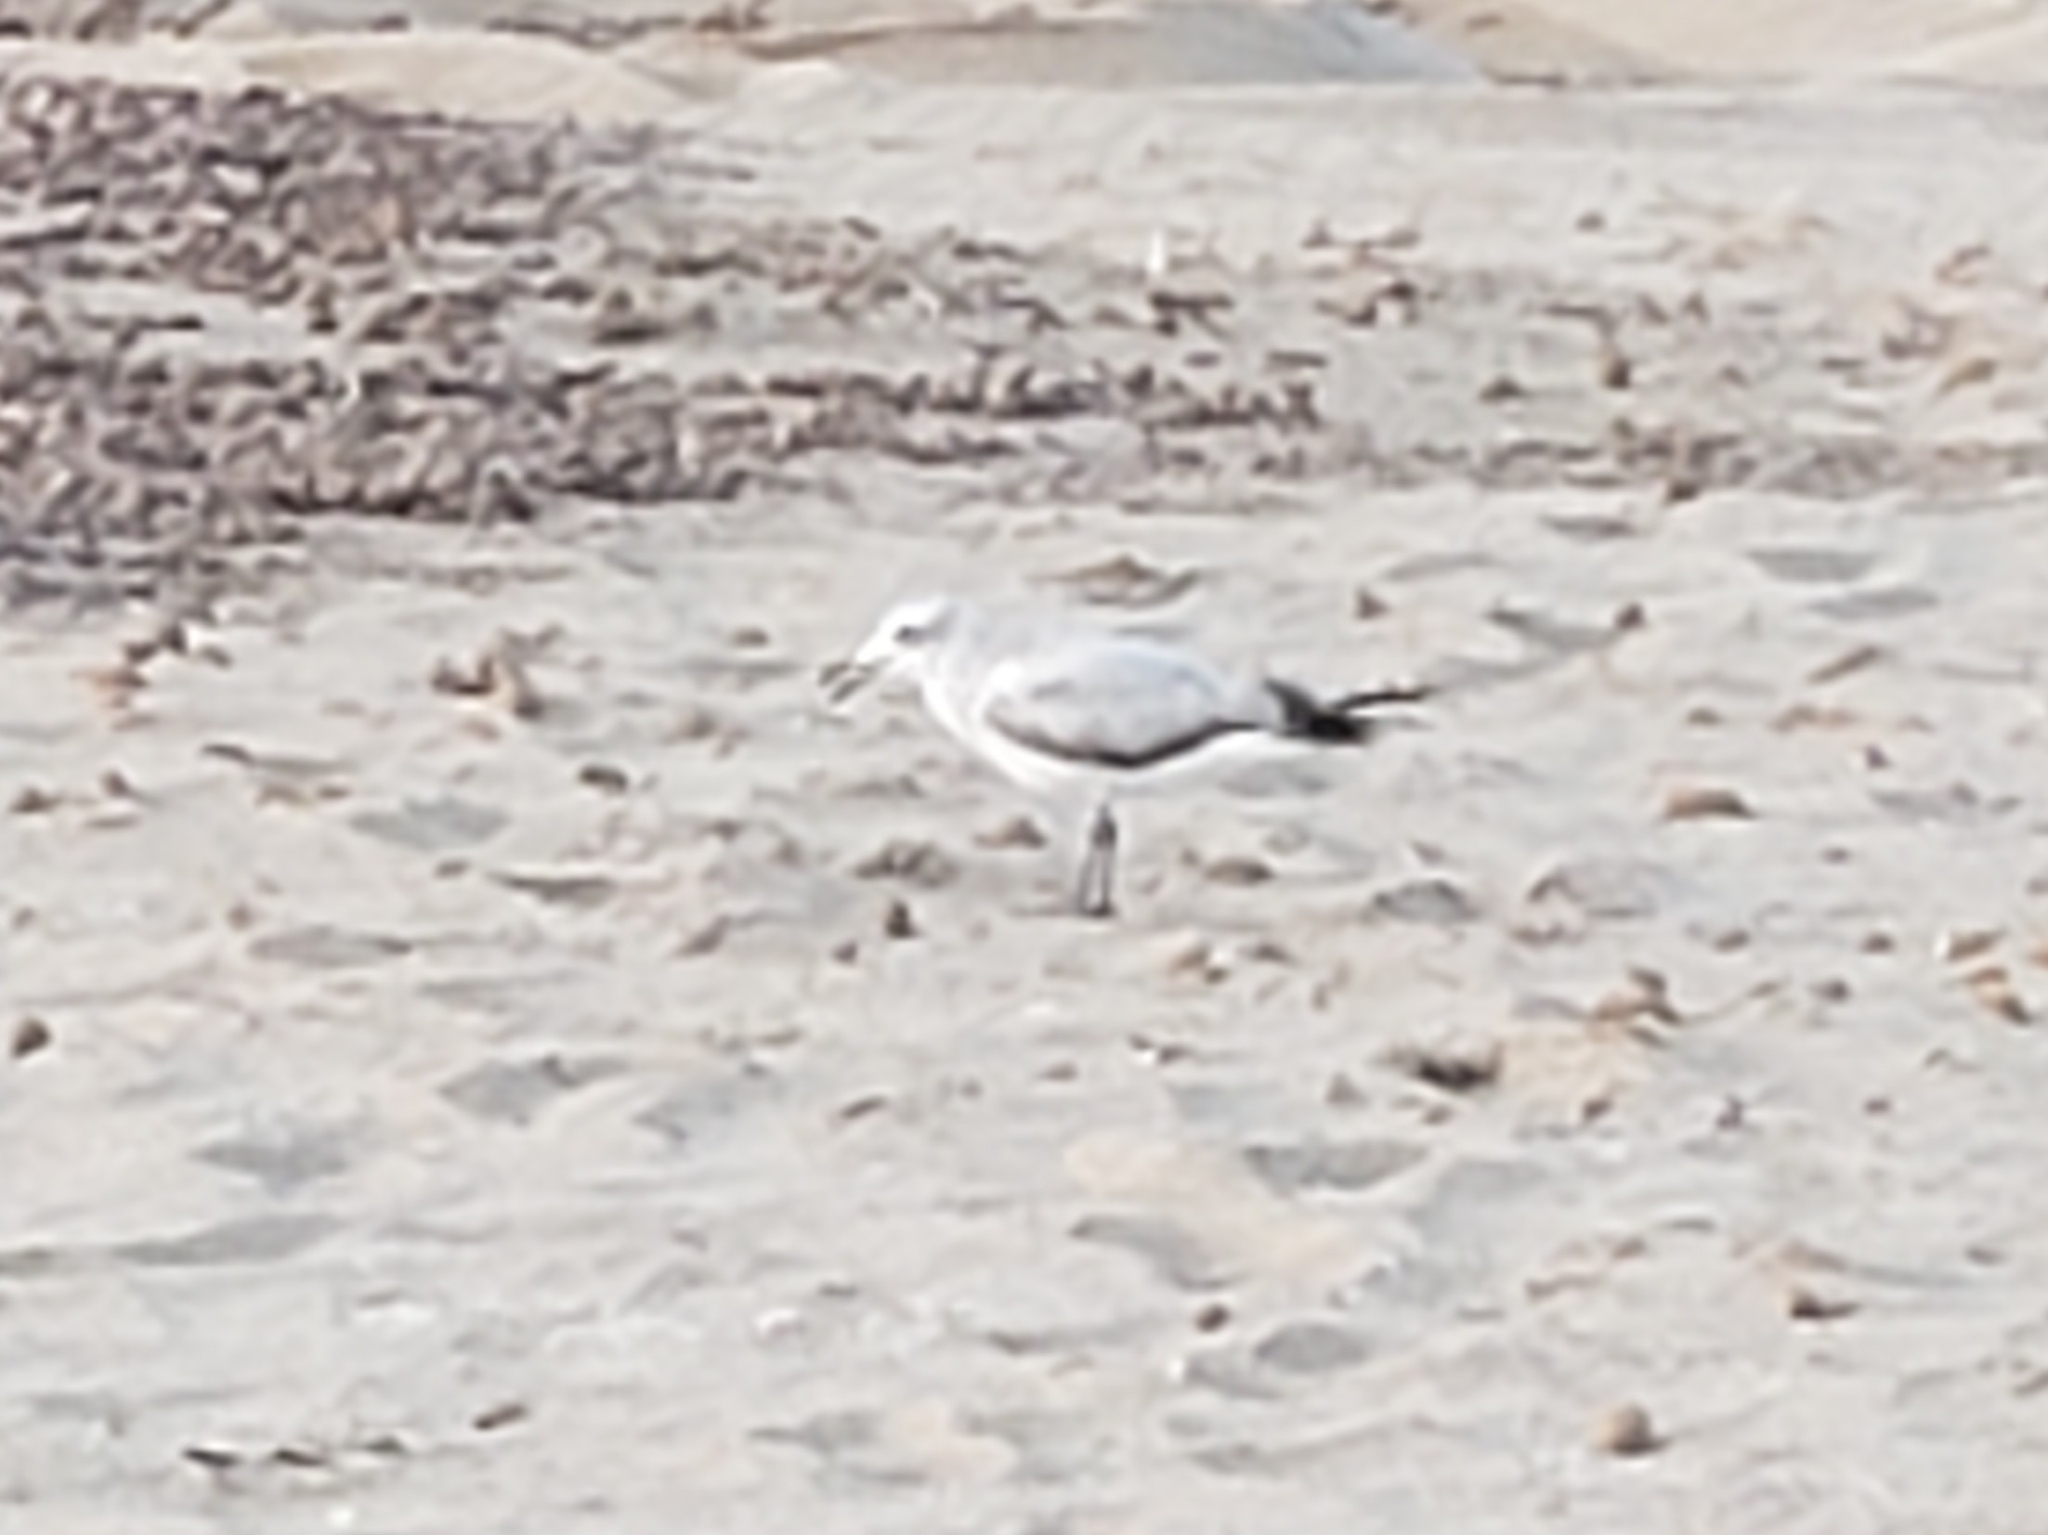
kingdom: Animalia
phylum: Chordata
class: Aves
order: Charadriiformes
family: Laridae
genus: Ichthyaetus
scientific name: Ichthyaetus audouinii
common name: Audouin's gull
